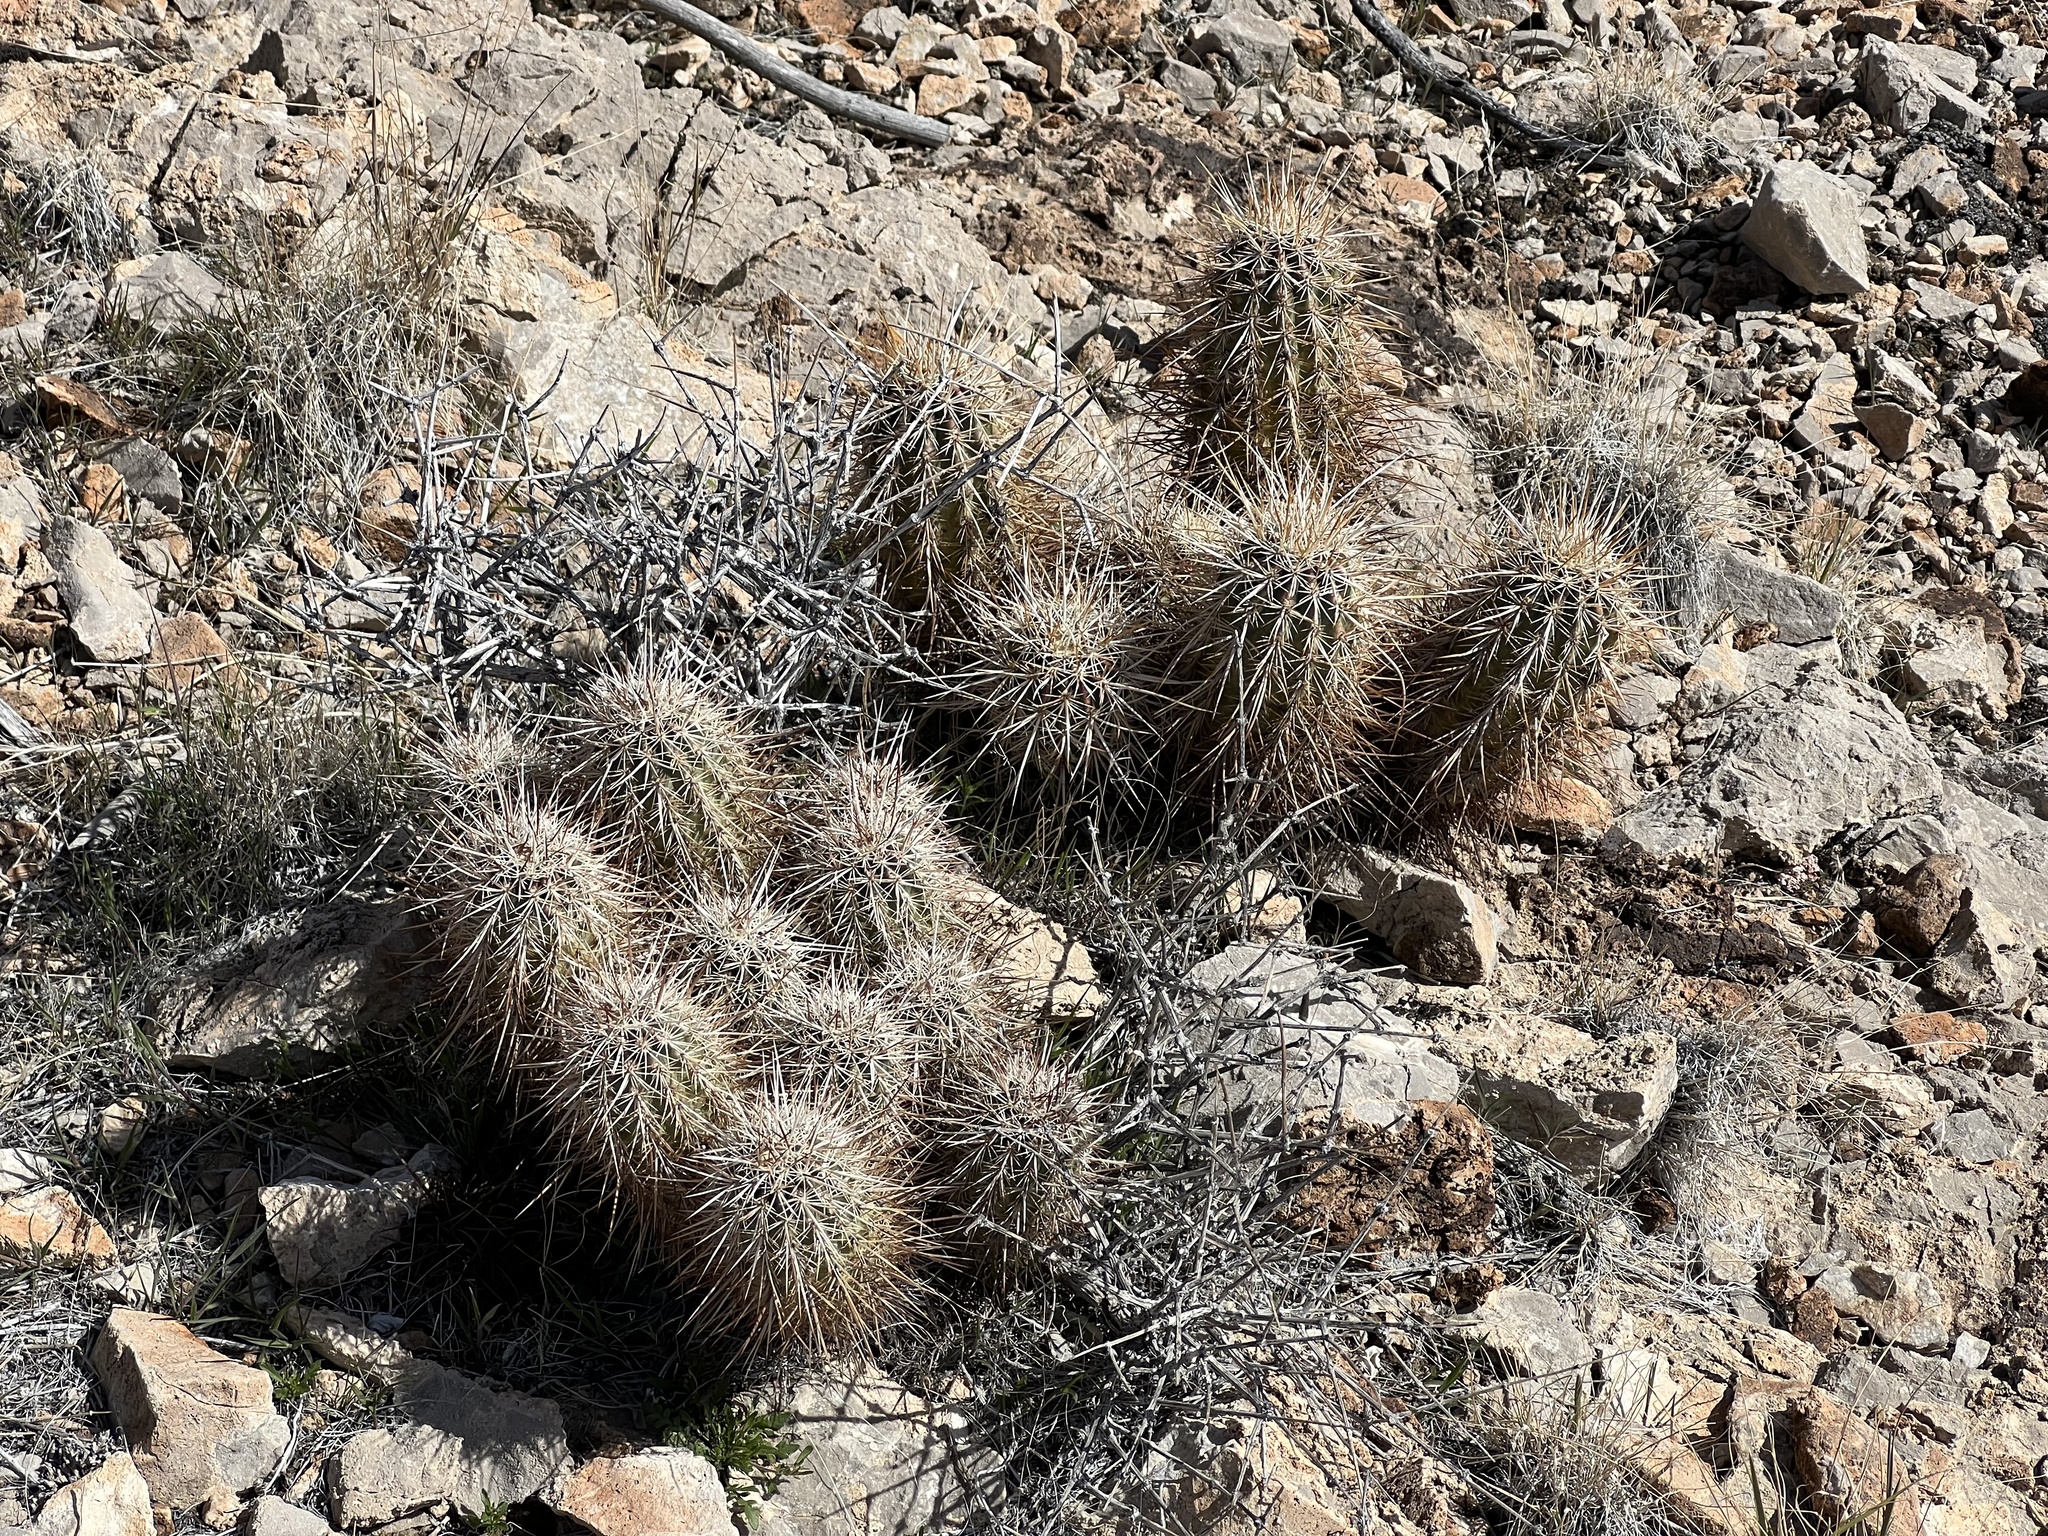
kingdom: Plantae
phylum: Tracheophyta
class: Magnoliopsida
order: Caryophyllales
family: Cactaceae
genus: Echinocereus
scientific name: Echinocereus engelmannii
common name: Engelmann's hedgehog cactus
